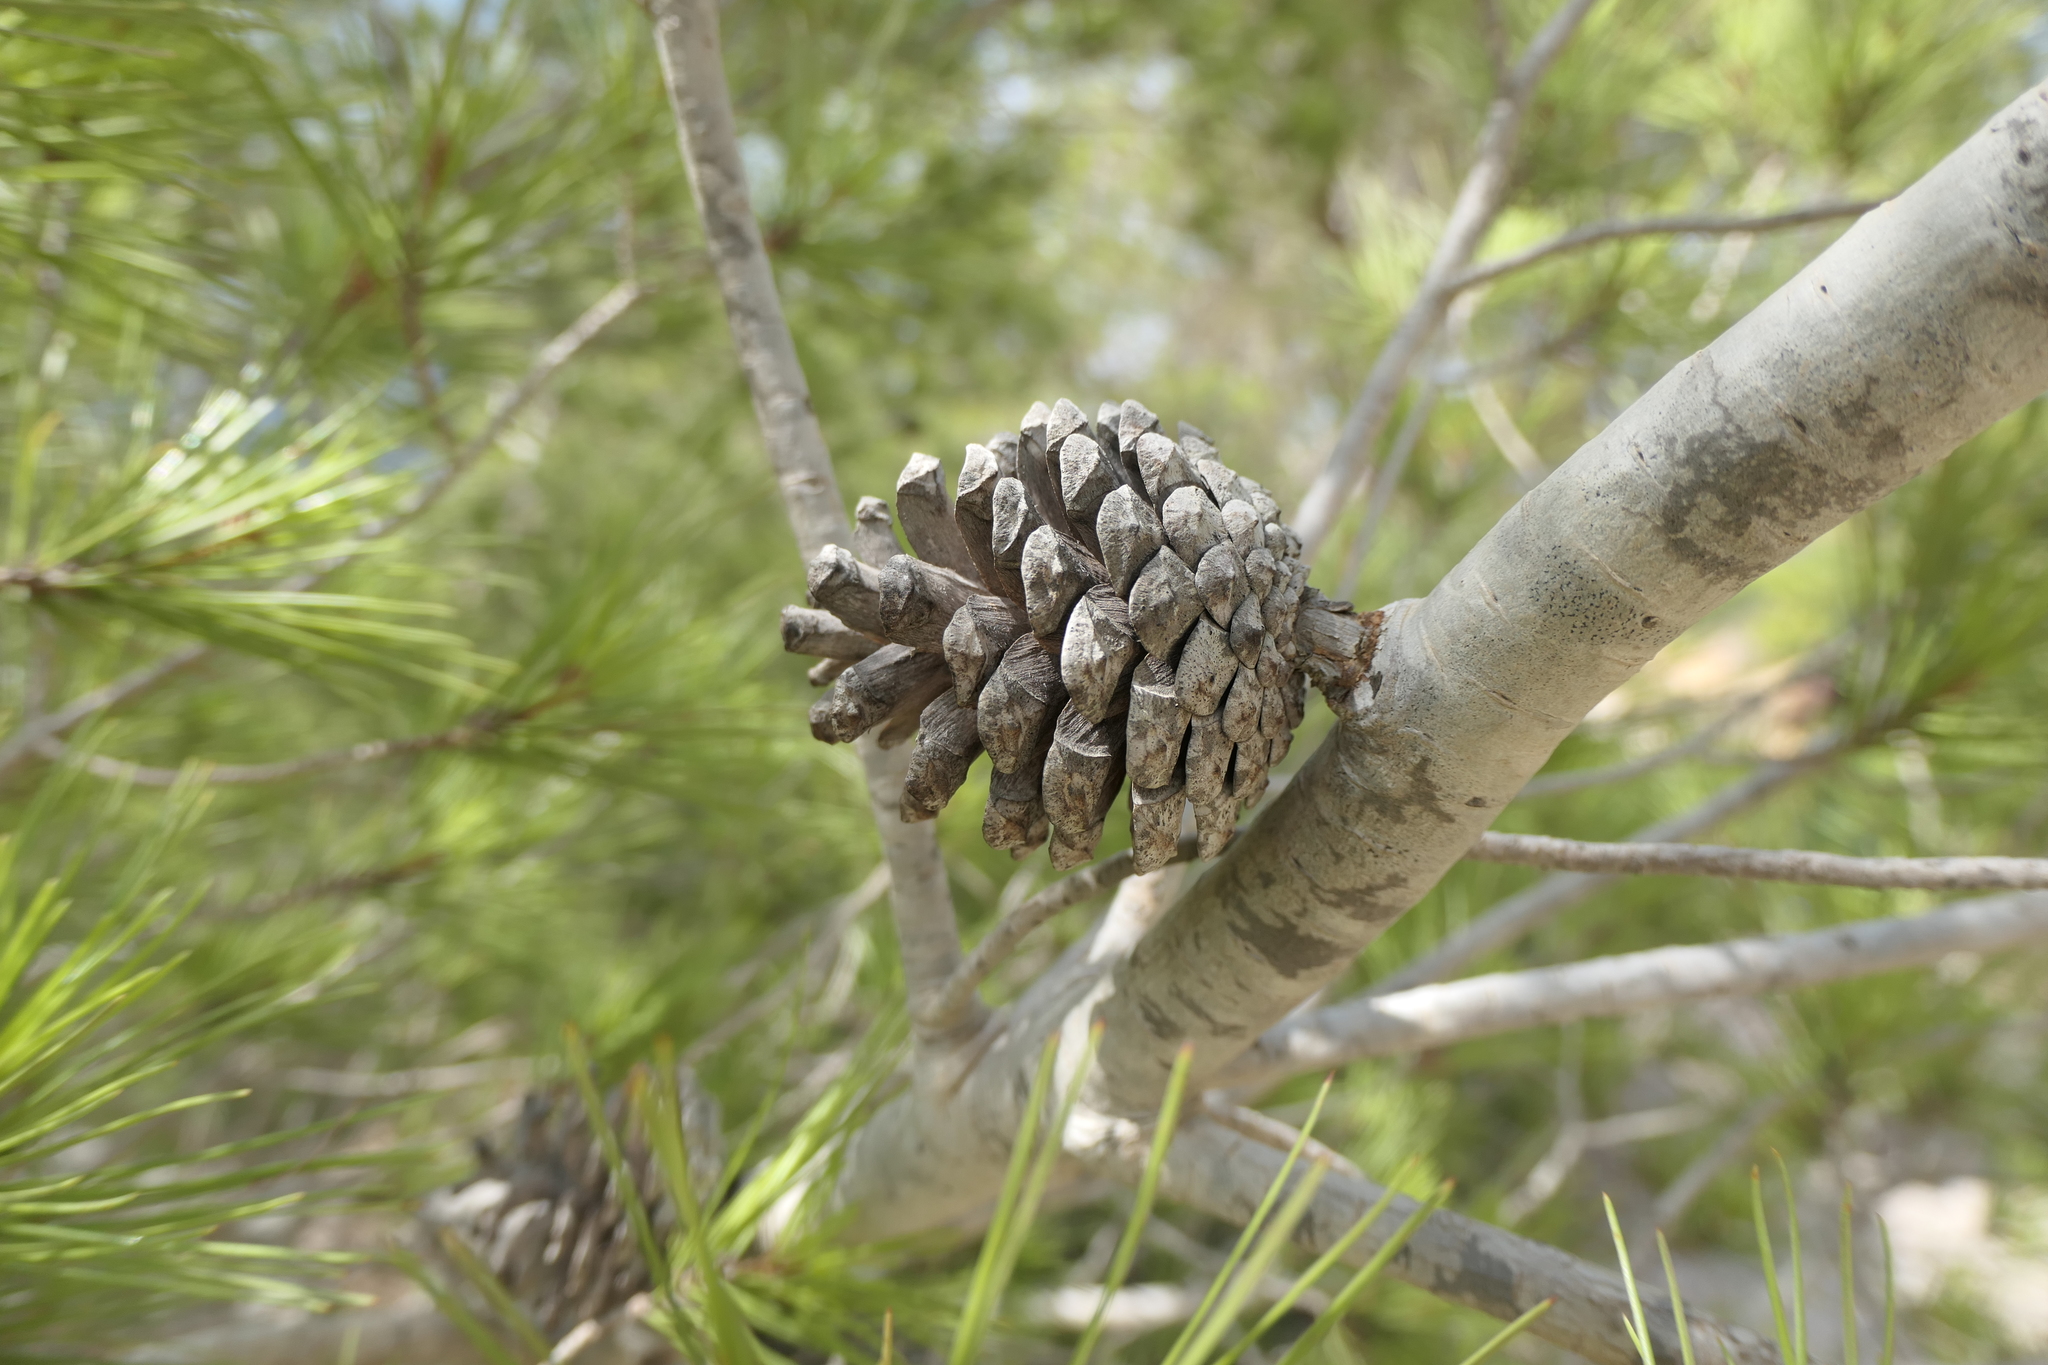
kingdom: Plantae
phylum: Tracheophyta
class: Pinopsida
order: Pinales
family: Pinaceae
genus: Pinus
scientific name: Pinus halepensis
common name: Aleppo pine
